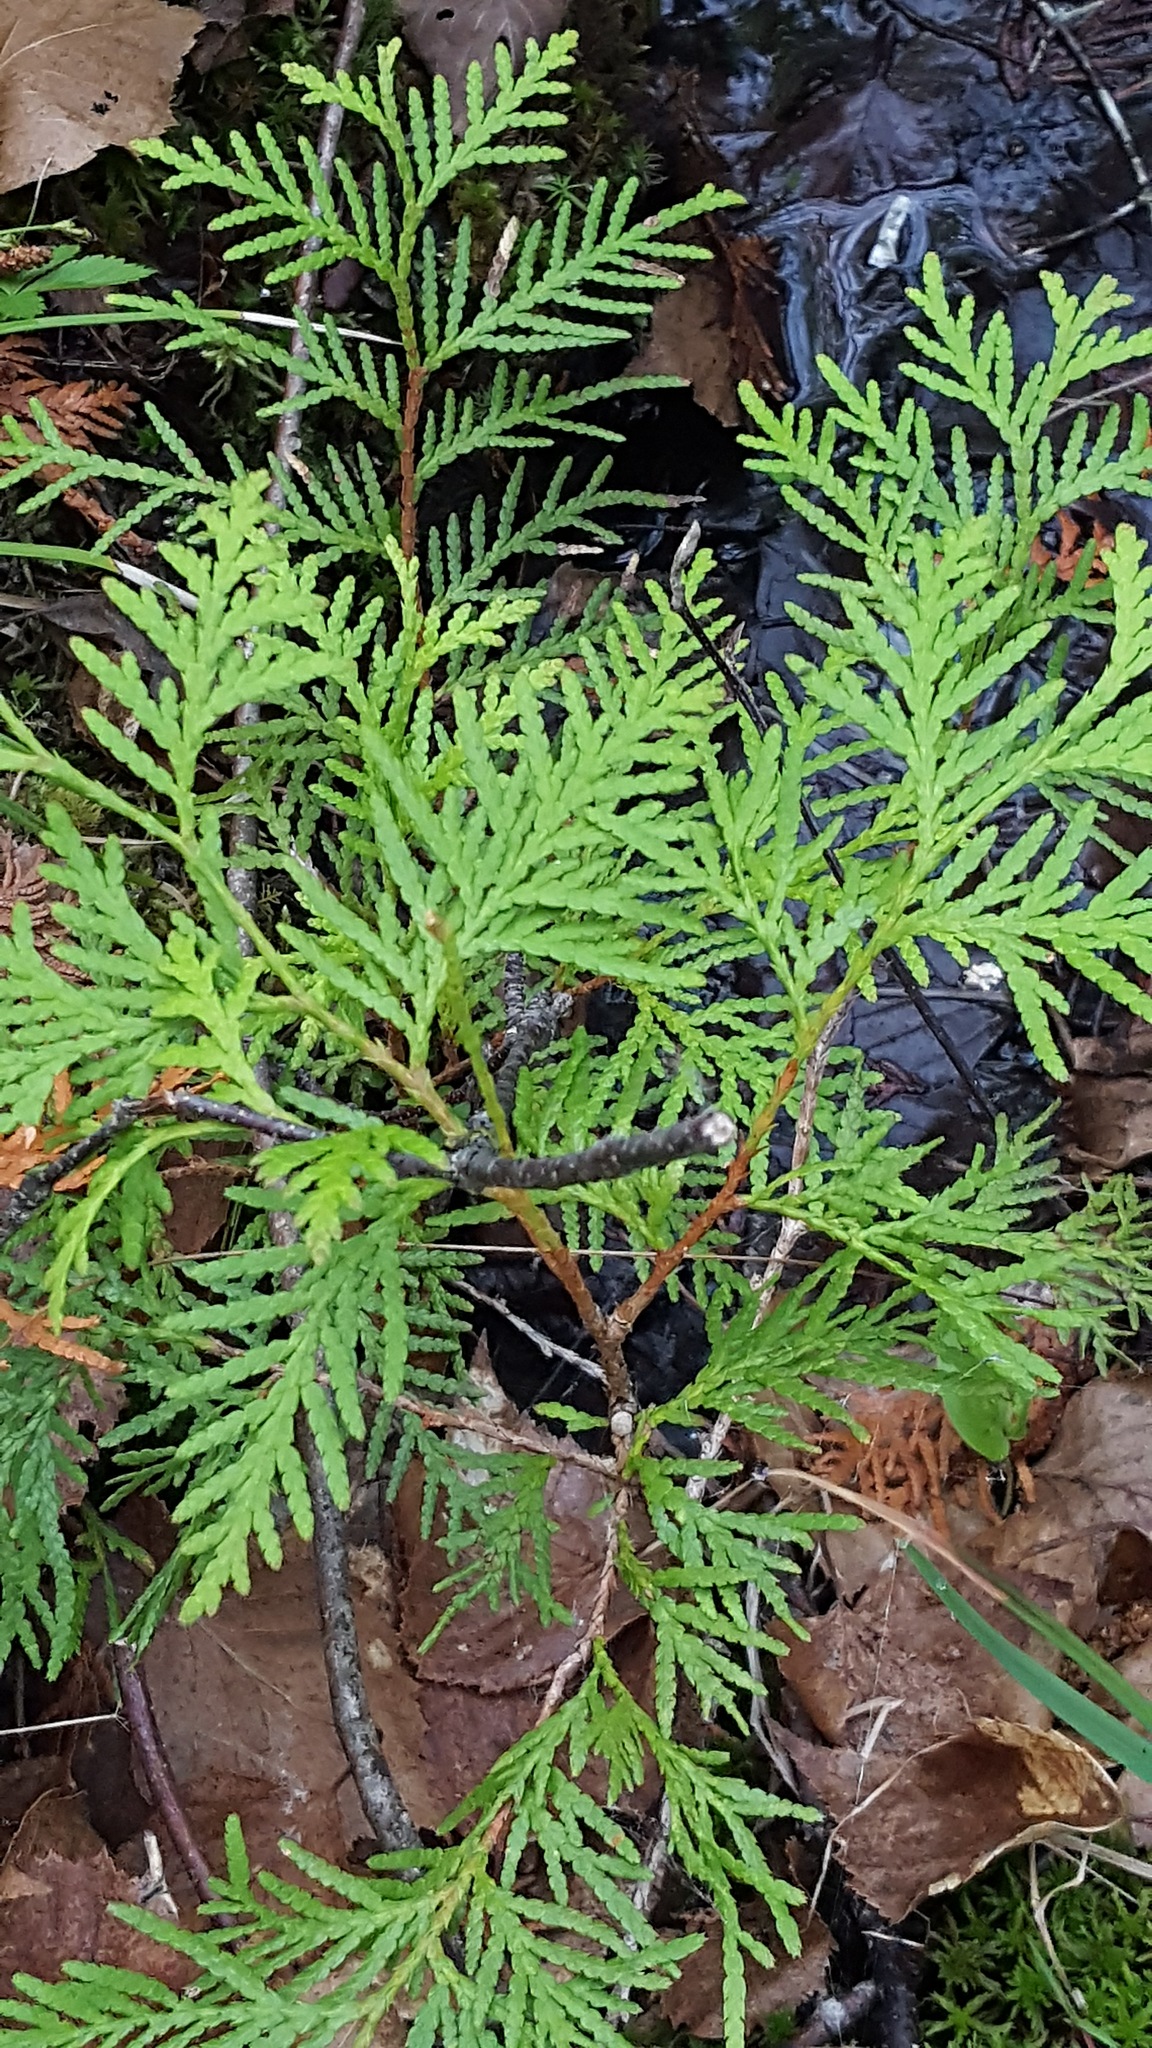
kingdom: Plantae
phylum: Tracheophyta
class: Pinopsida
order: Pinales
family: Cupressaceae
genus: Thuja
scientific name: Thuja occidentalis
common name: Northern white-cedar
